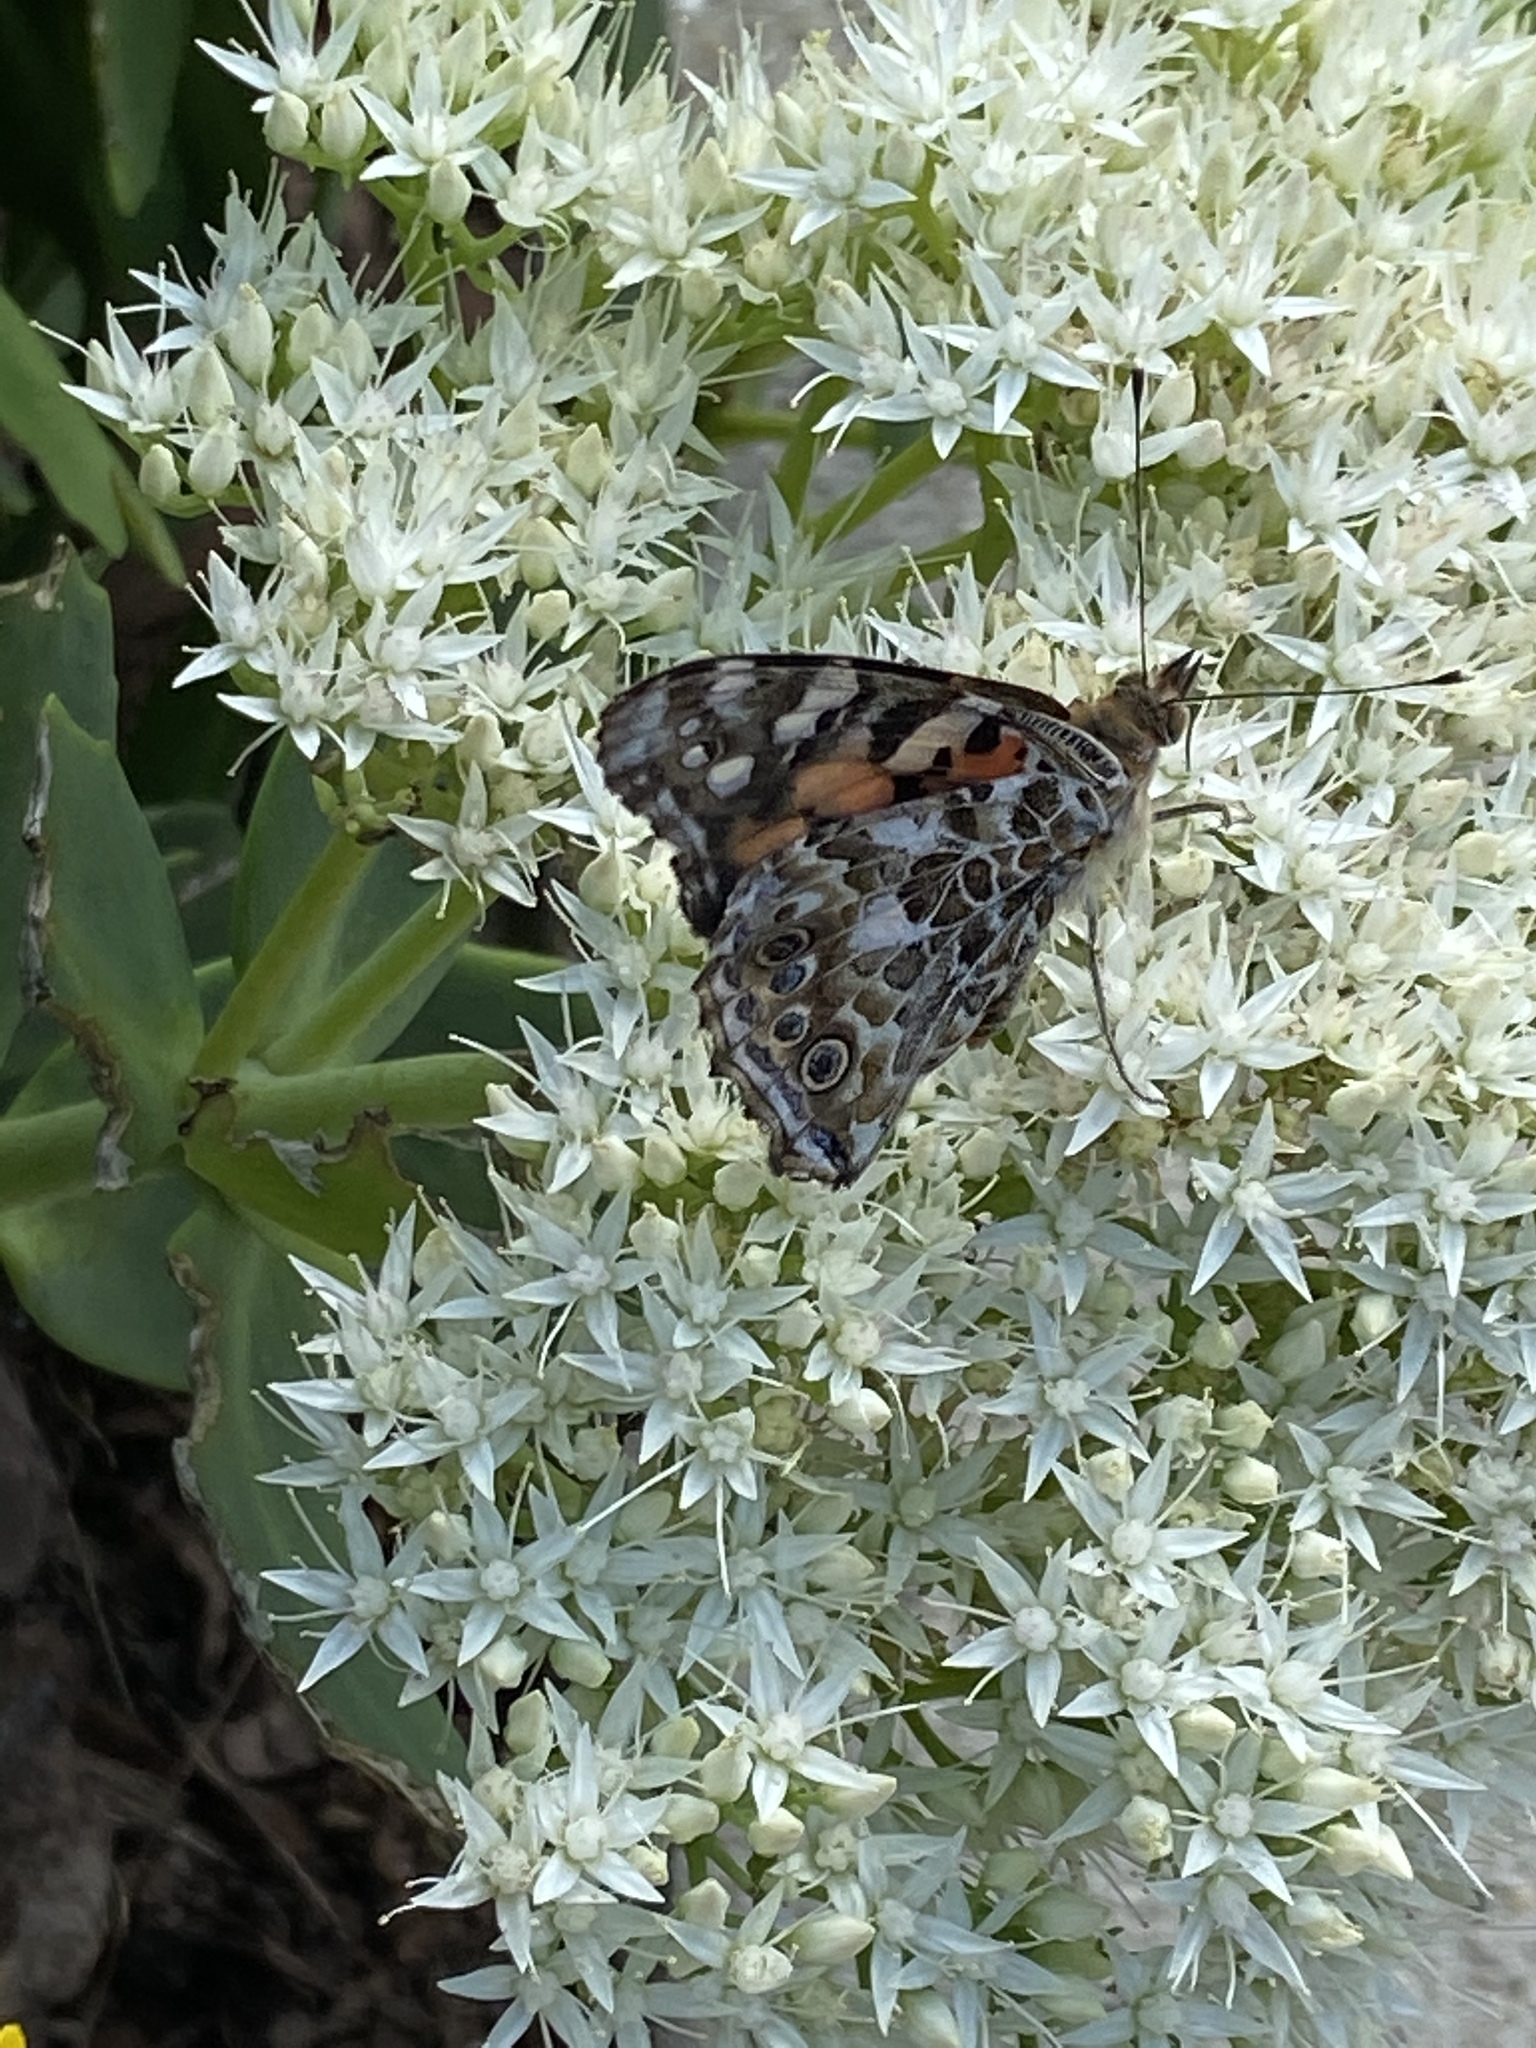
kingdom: Animalia
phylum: Arthropoda
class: Insecta
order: Lepidoptera
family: Nymphalidae
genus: Vanessa
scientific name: Vanessa cardui
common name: Painted lady
